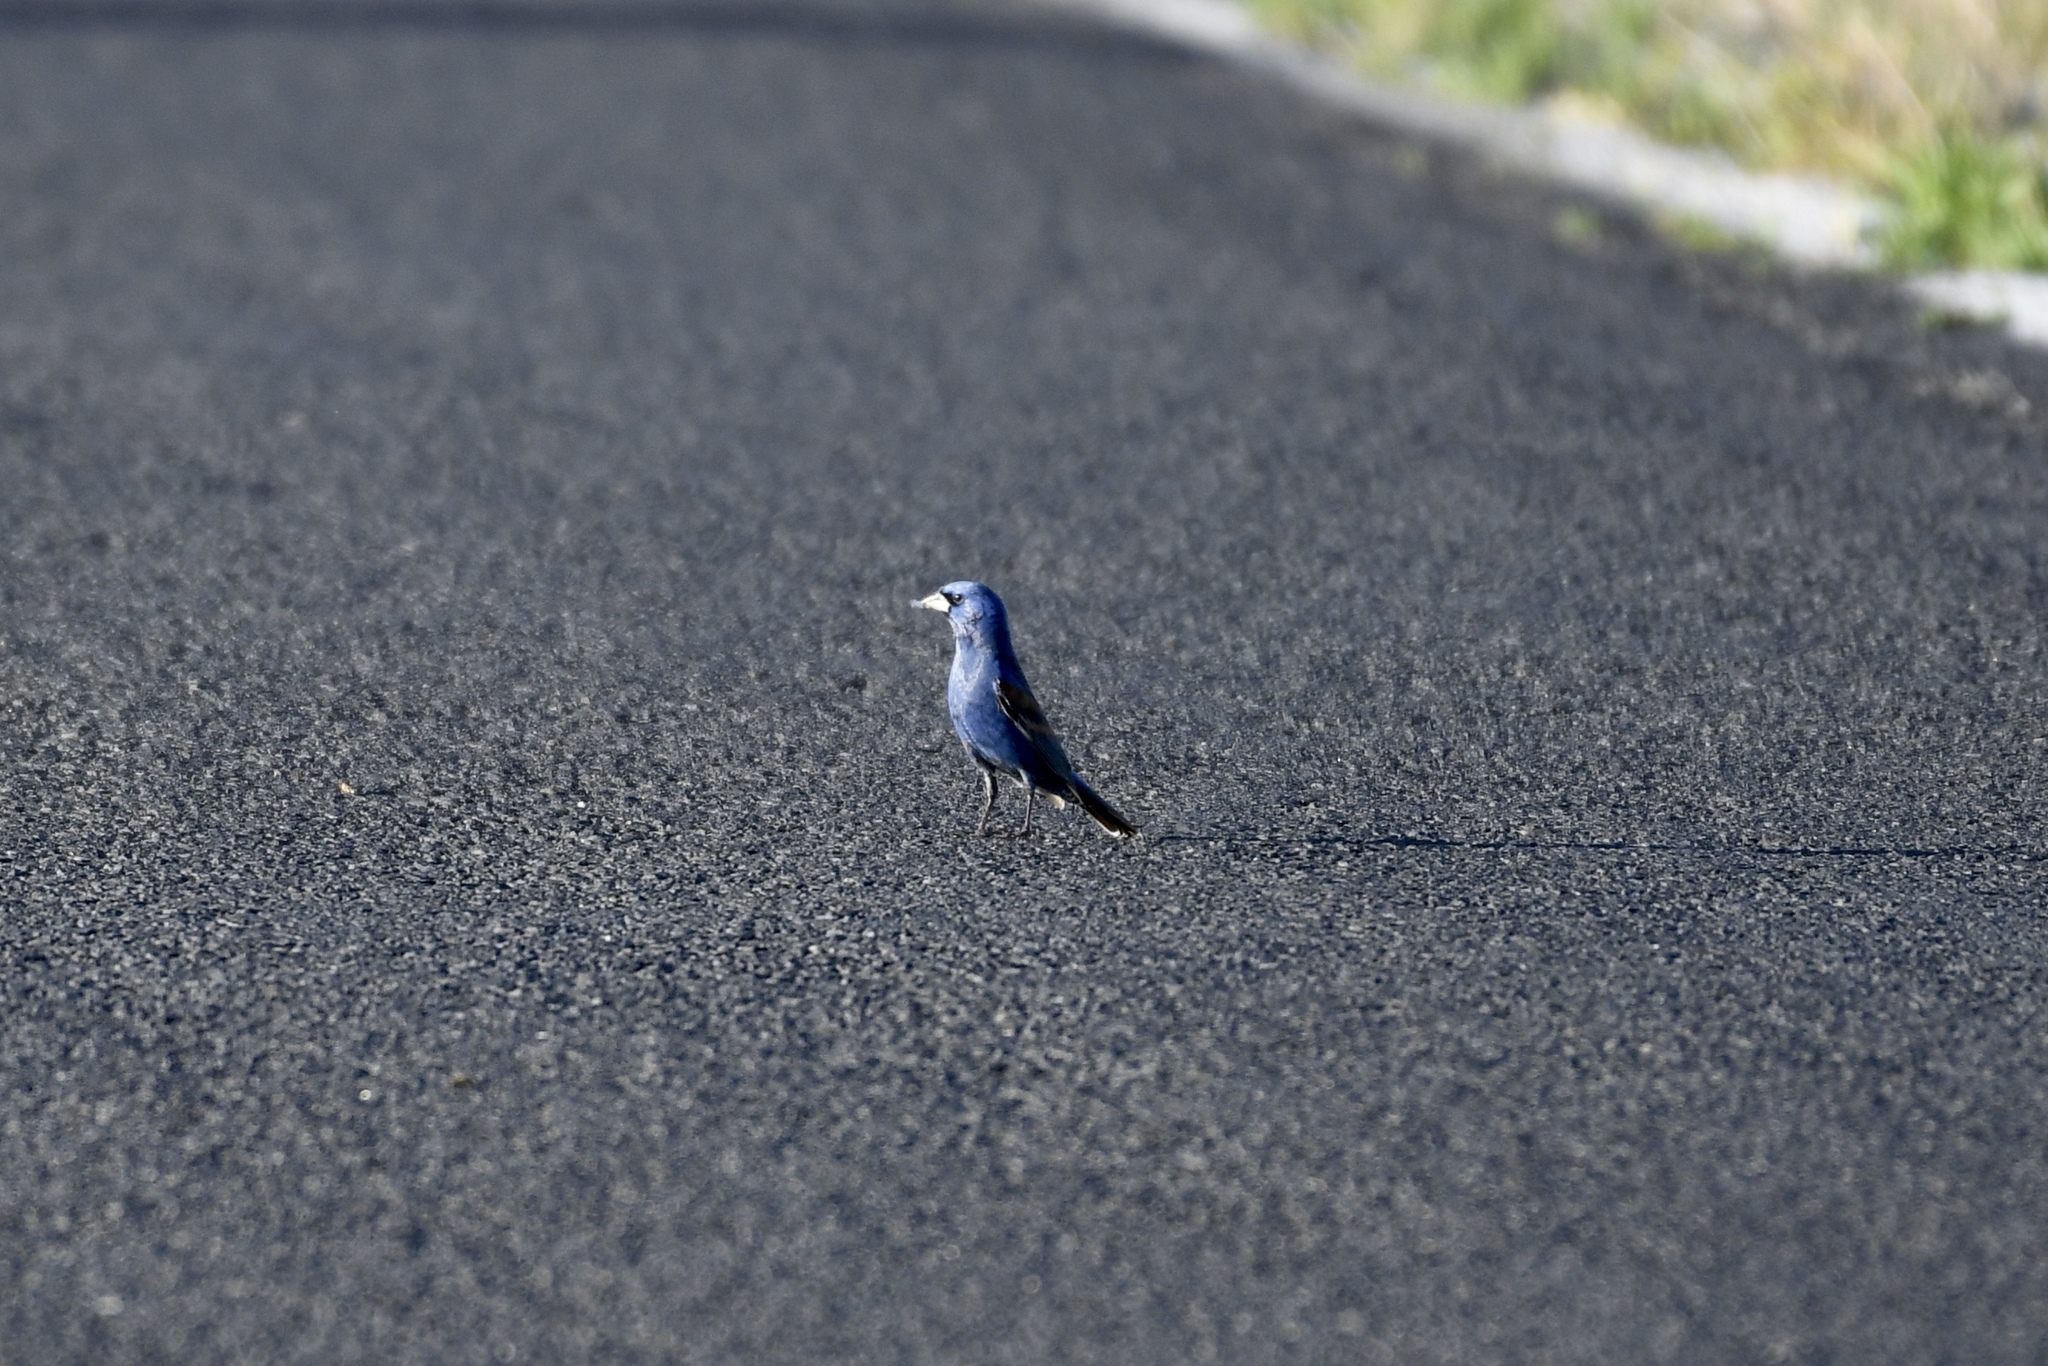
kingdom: Animalia
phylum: Chordata
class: Aves
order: Passeriformes
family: Cardinalidae
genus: Passerina
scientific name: Passerina caerulea
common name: Blue grosbeak
